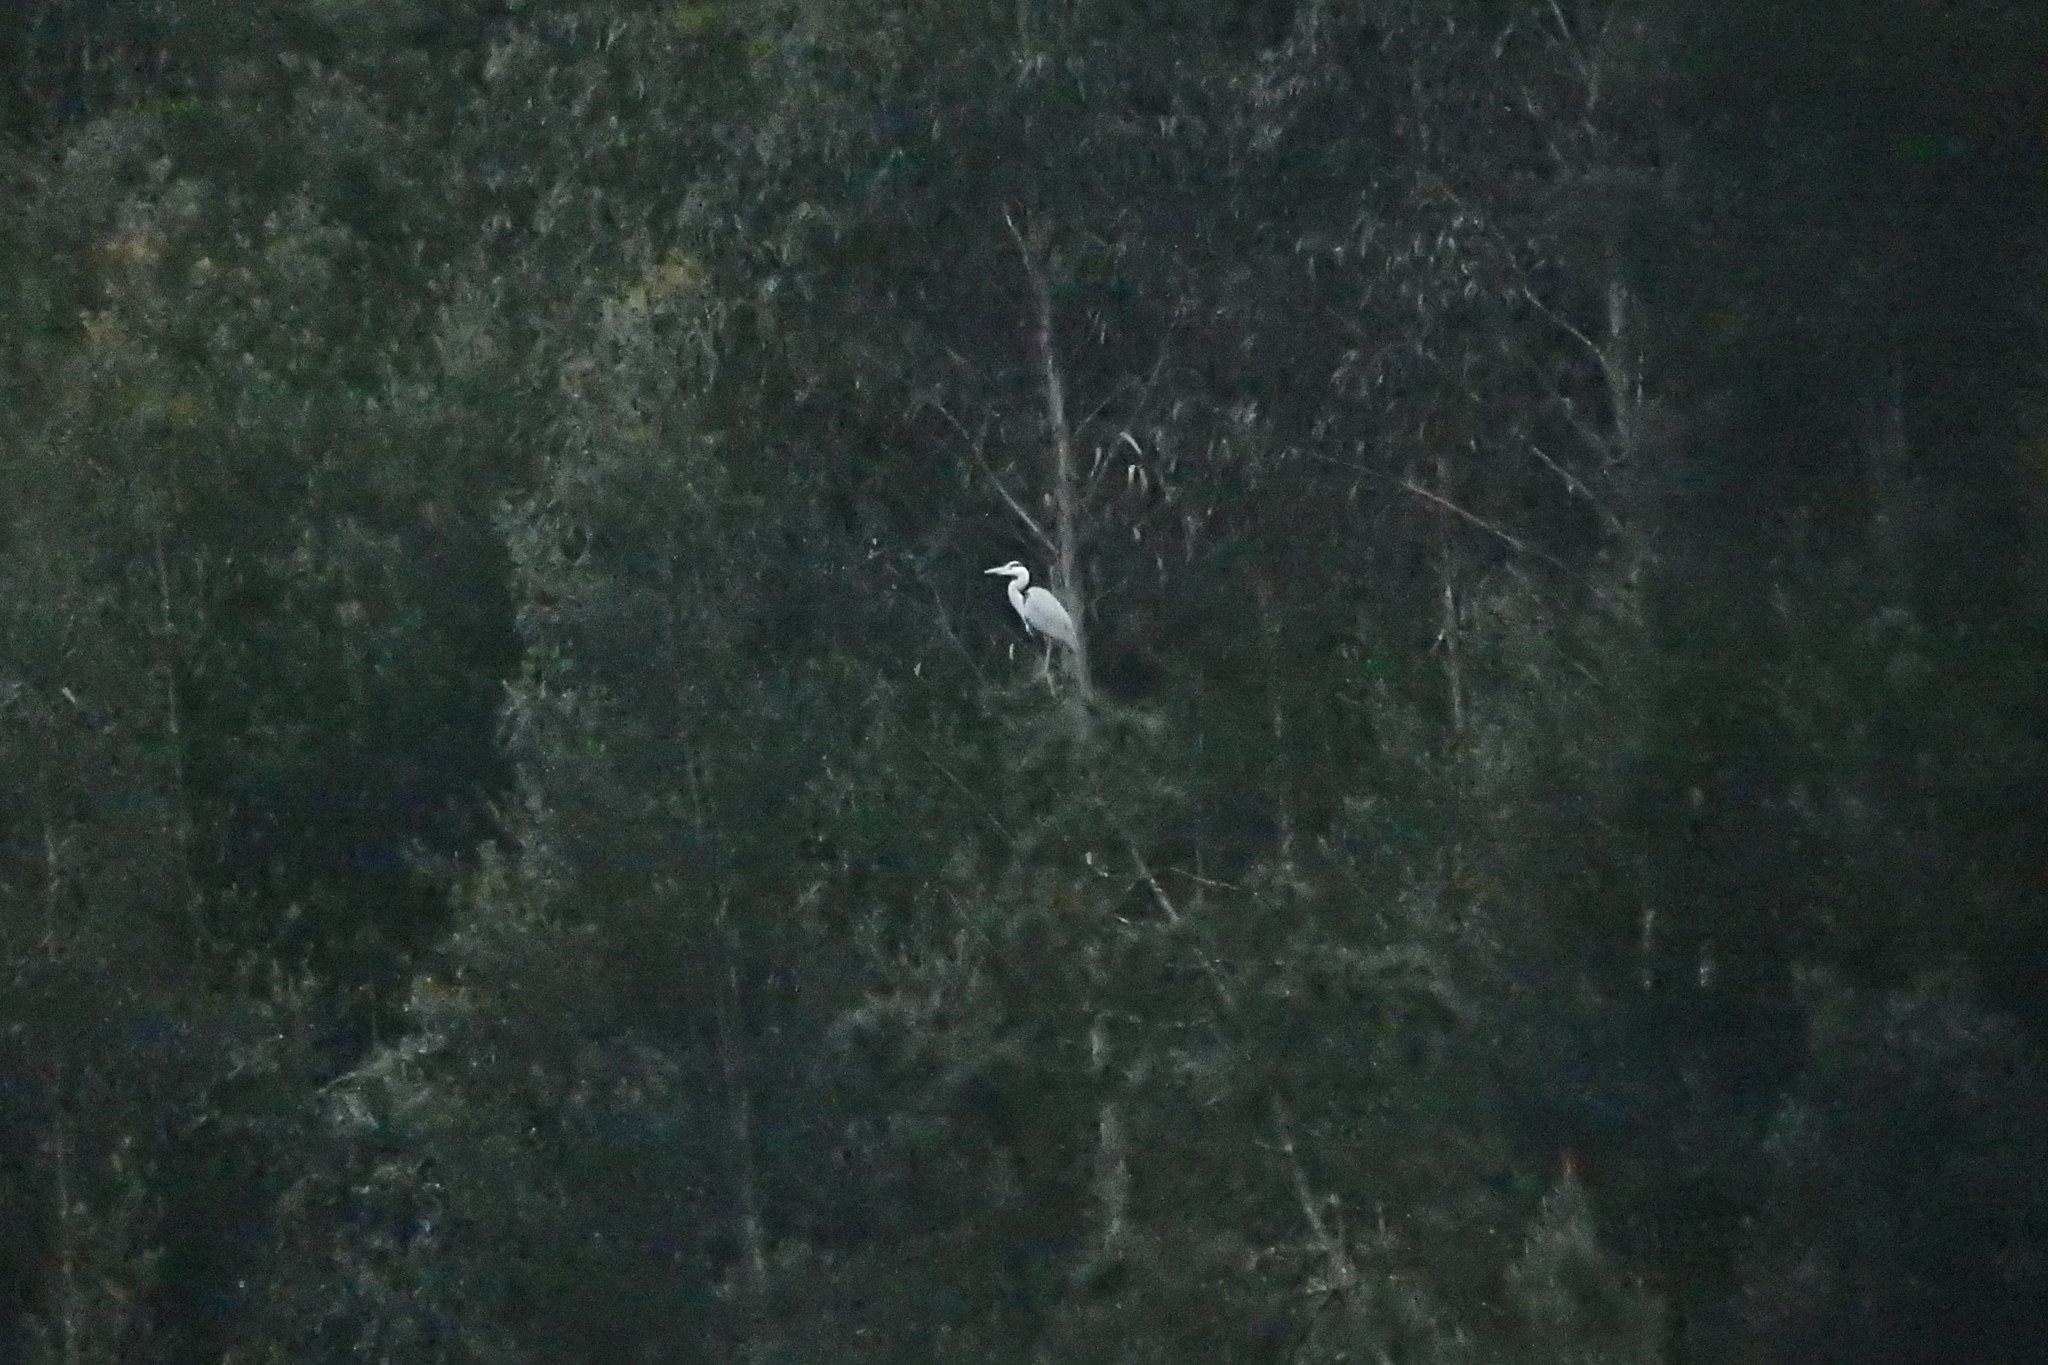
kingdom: Animalia
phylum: Chordata
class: Aves
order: Pelecaniformes
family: Ardeidae
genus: Ardea
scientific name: Ardea cinerea
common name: Grey heron
